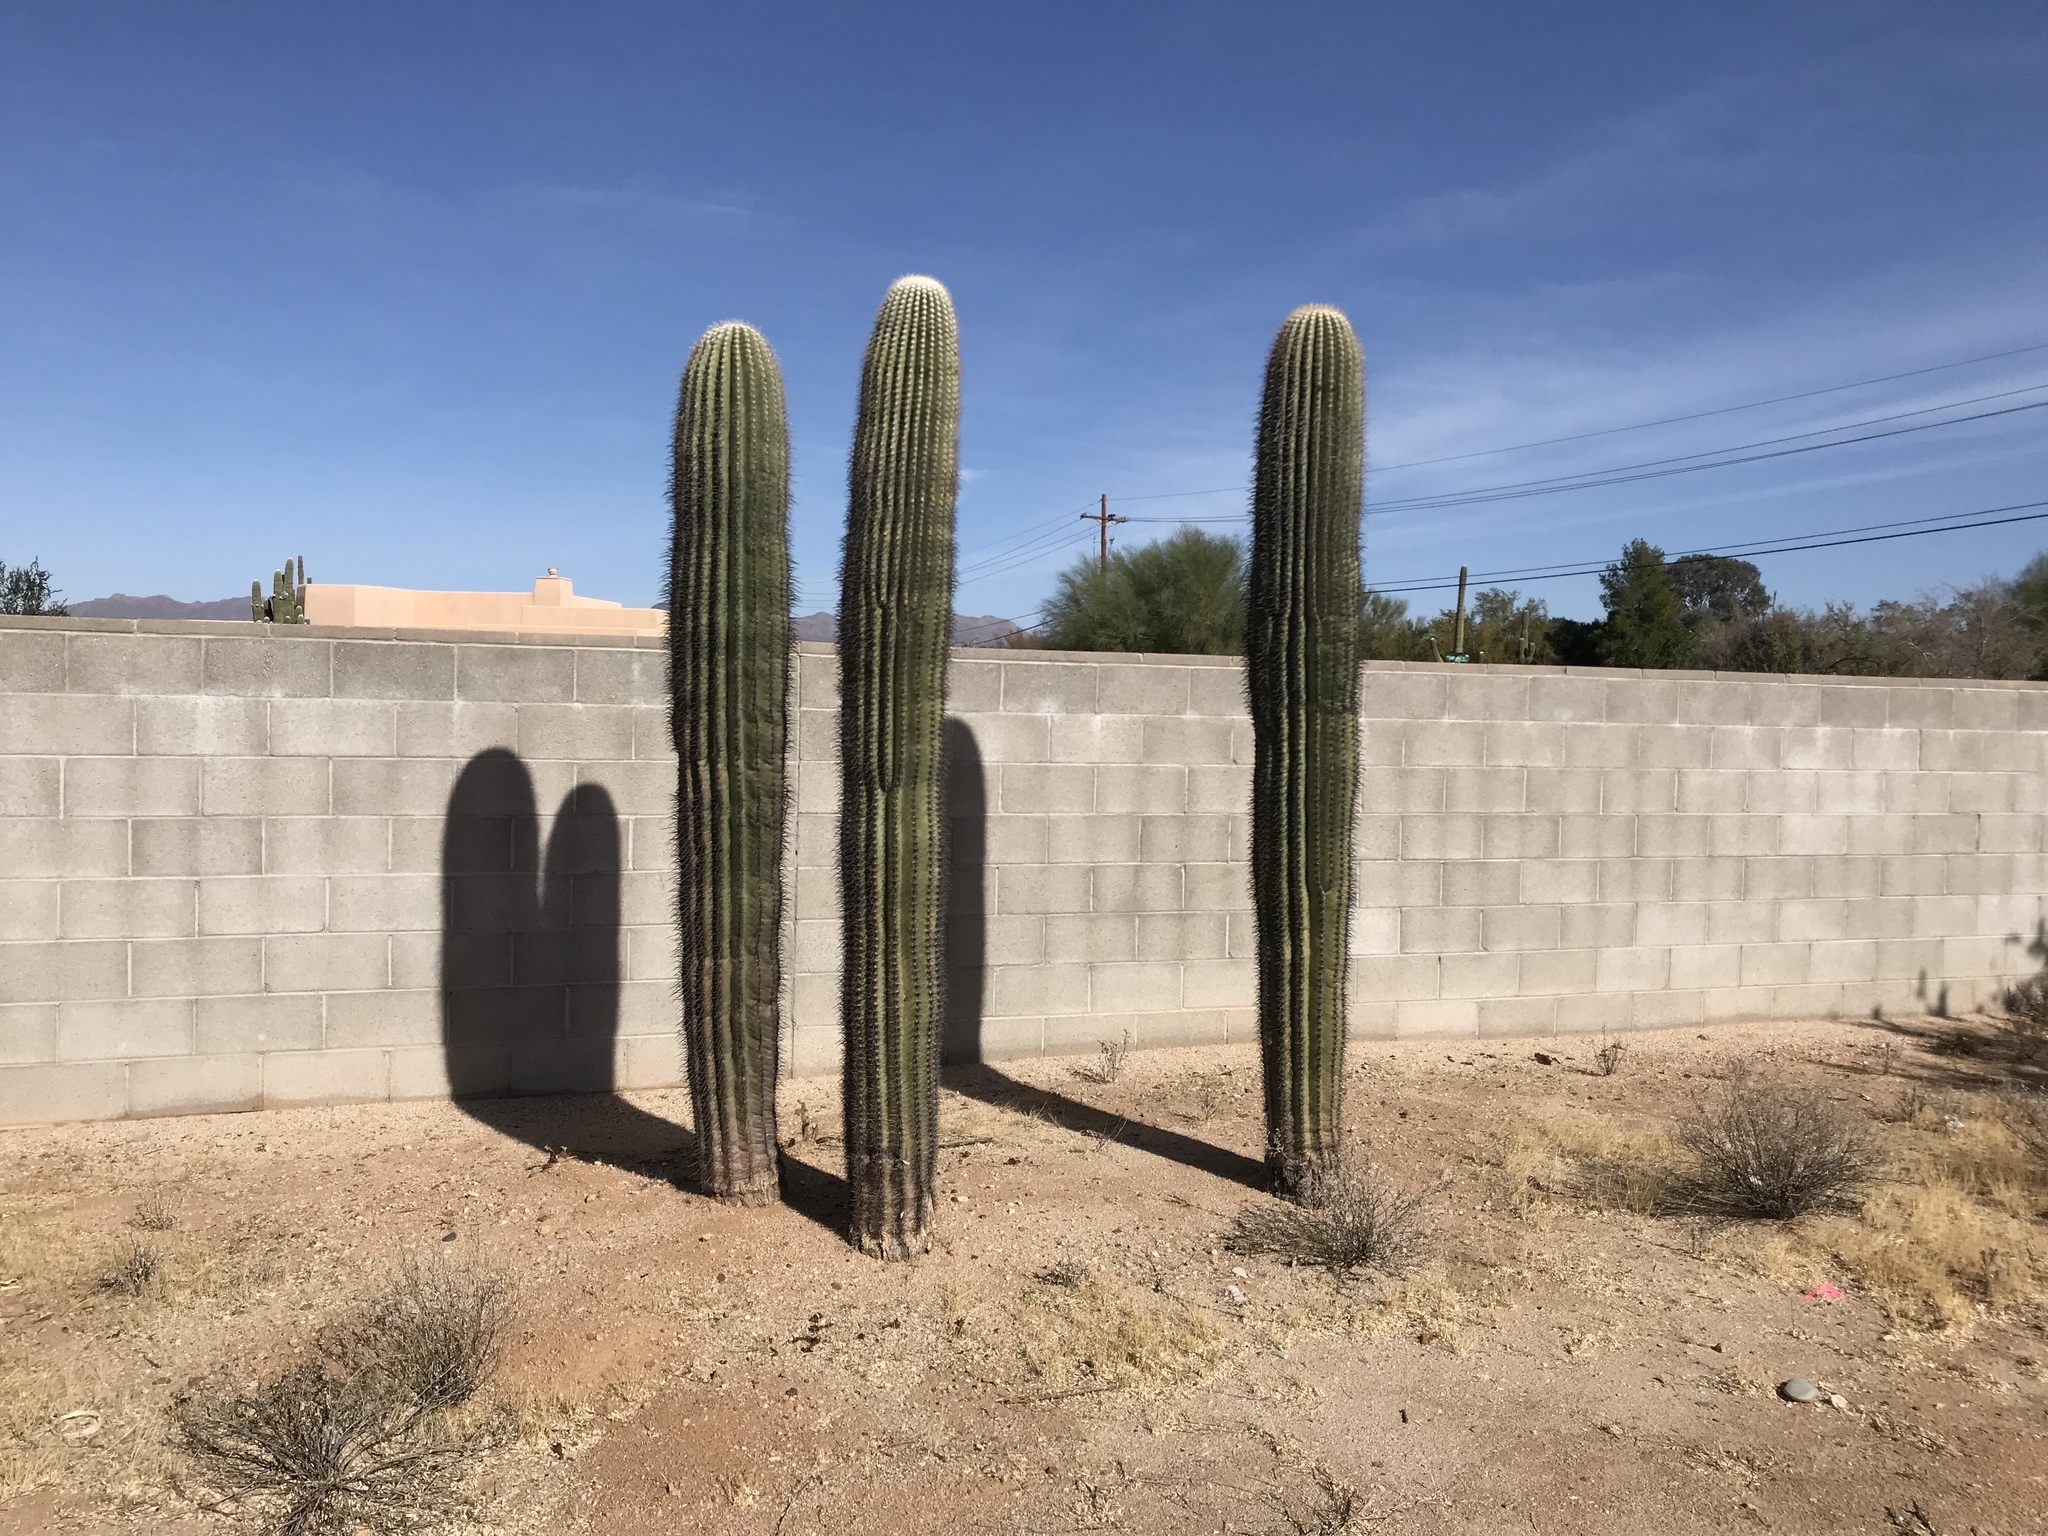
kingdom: Plantae
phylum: Tracheophyta
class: Magnoliopsida
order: Caryophyllales
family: Cactaceae
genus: Carnegiea
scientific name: Carnegiea gigantea
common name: Saguaro
